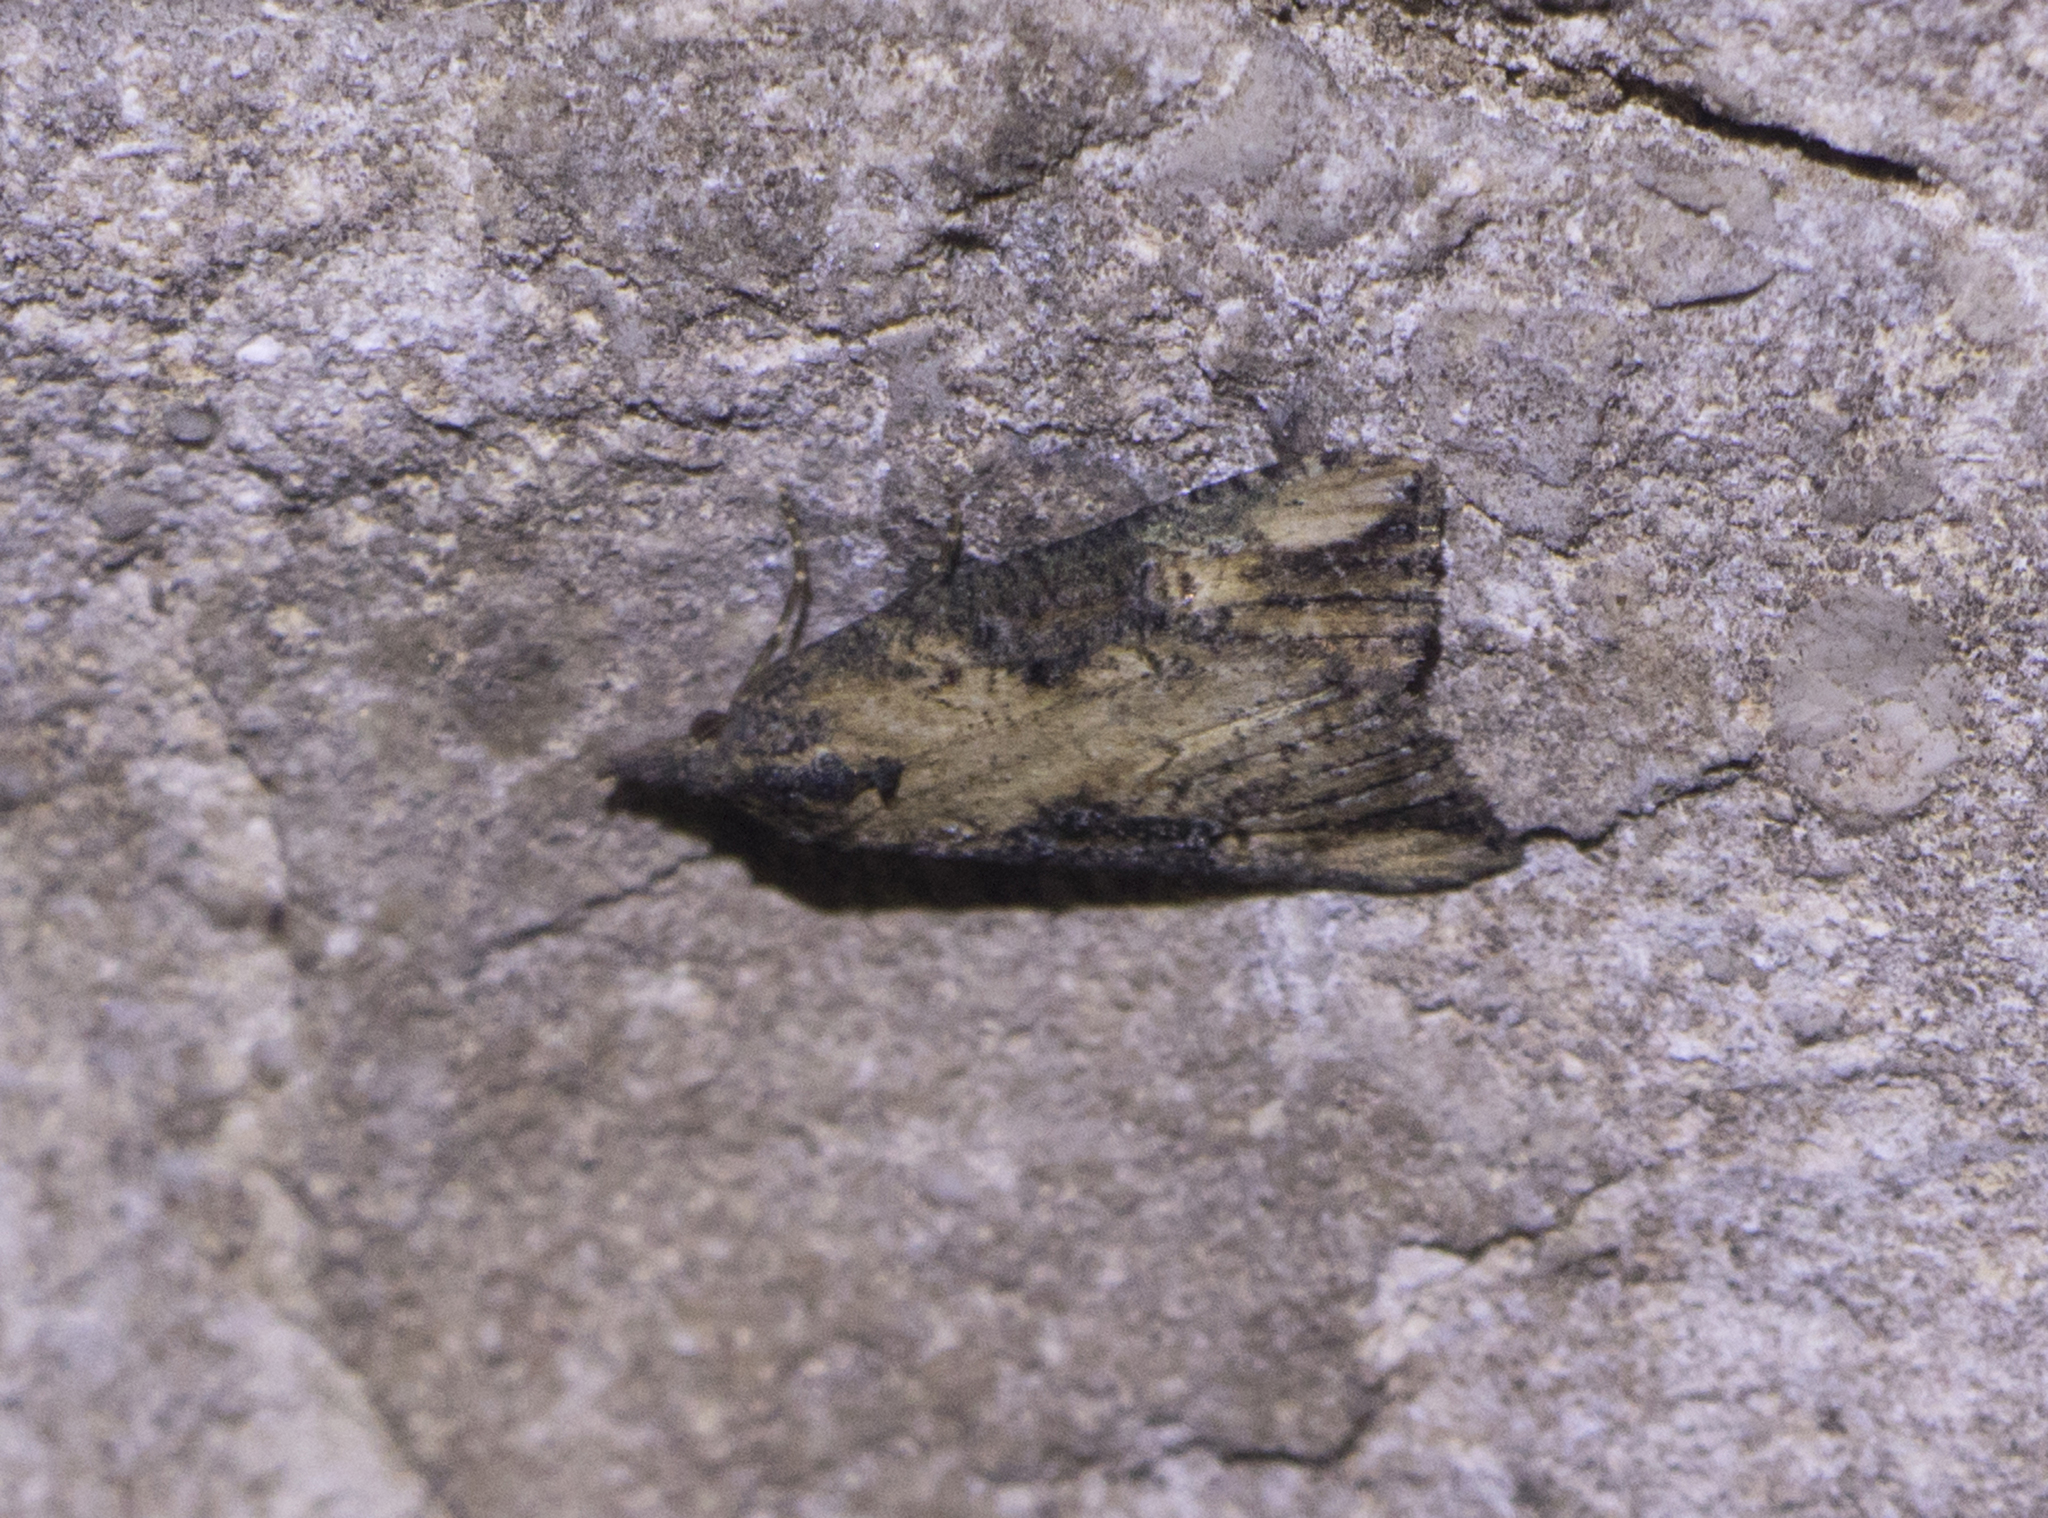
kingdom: Animalia
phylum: Arthropoda
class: Insecta
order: Lepidoptera
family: Erebidae
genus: Hypena
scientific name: Hypena obesalis
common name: Paignton snout
